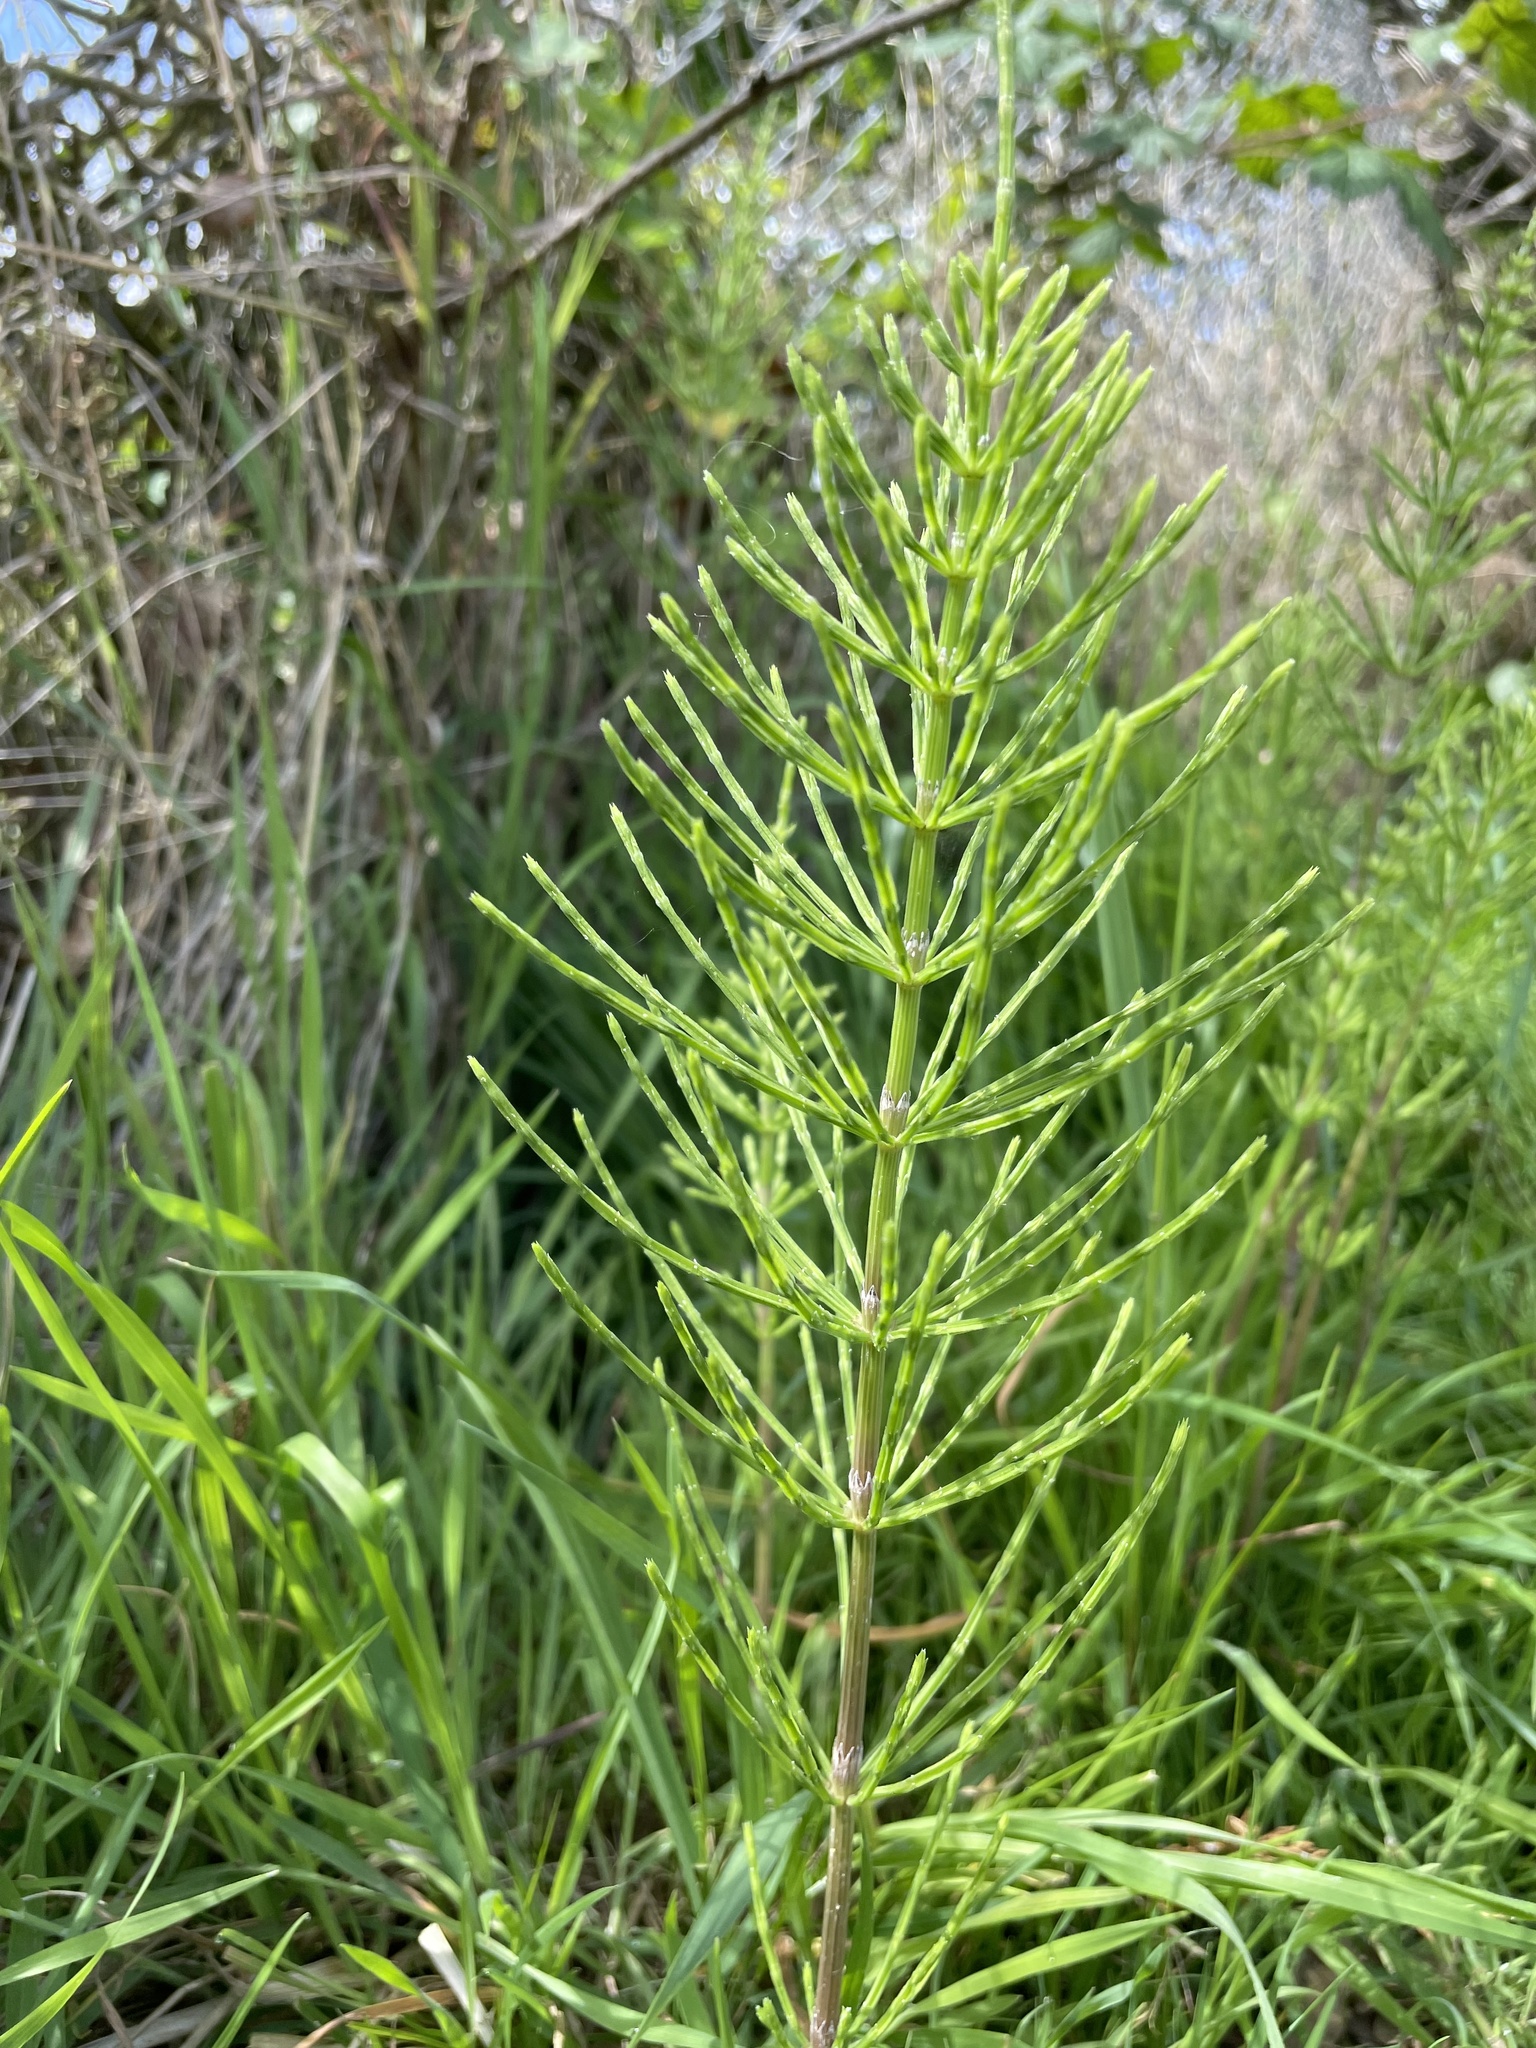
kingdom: Plantae
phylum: Tracheophyta
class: Polypodiopsida
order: Equisetales
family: Equisetaceae
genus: Equisetum
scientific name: Equisetum arvense
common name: Field horsetail
